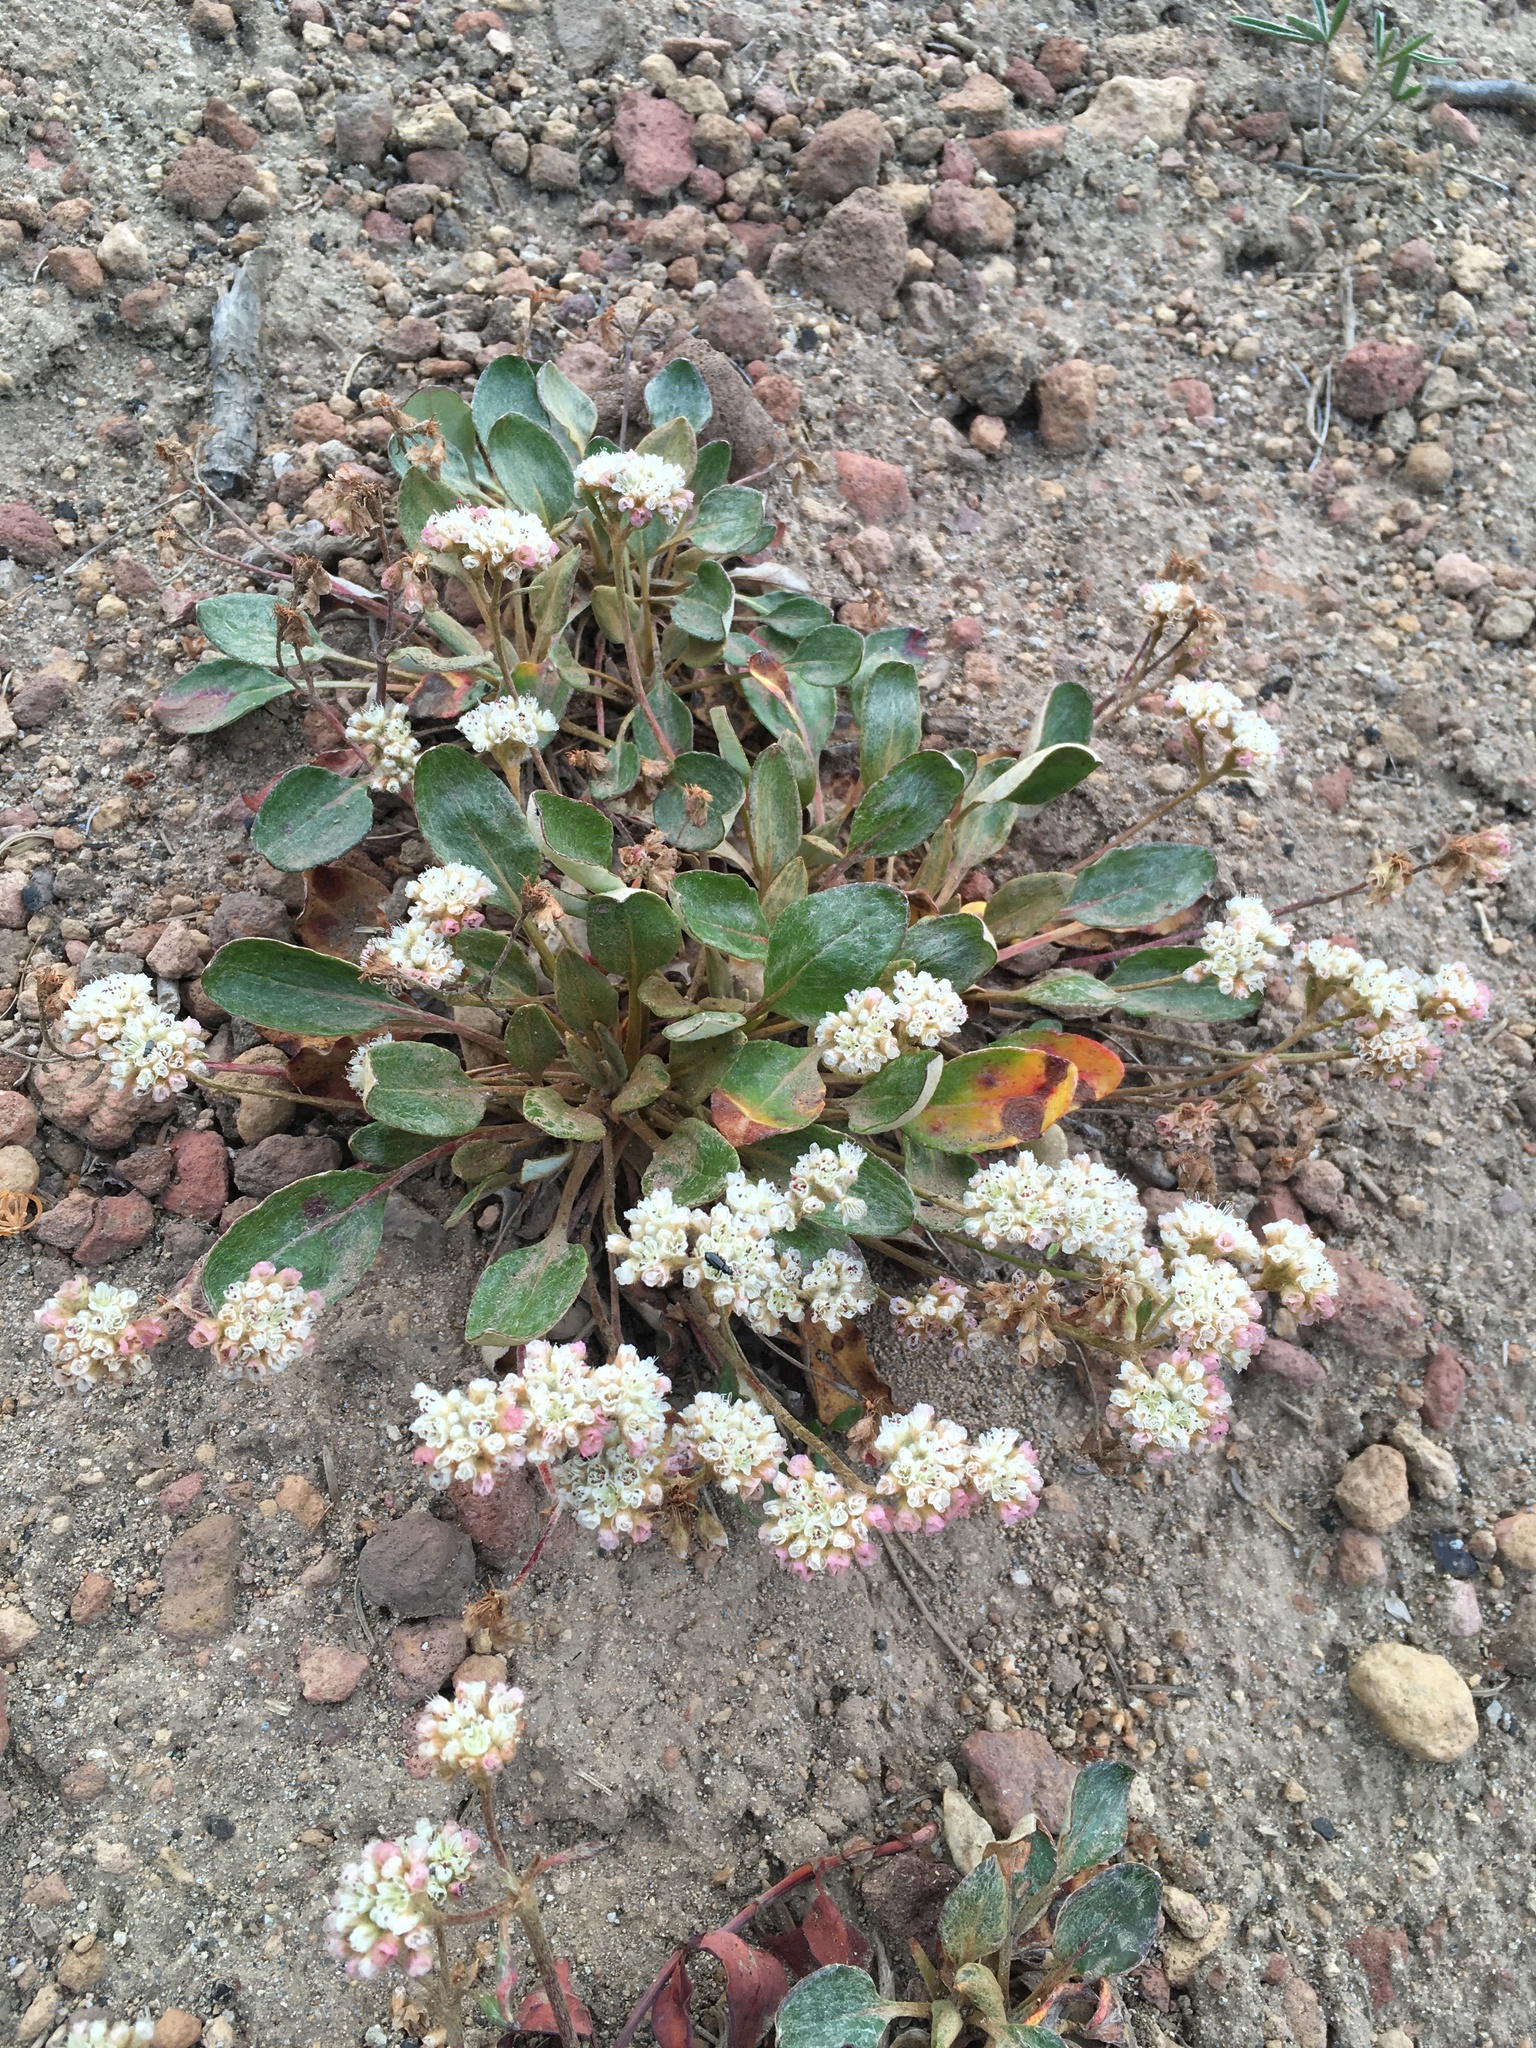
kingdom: Plantae
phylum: Tracheophyta
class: Magnoliopsida
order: Caryophyllales
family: Polygonaceae
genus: Eriogonum
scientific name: Eriogonum pyrolifolium
